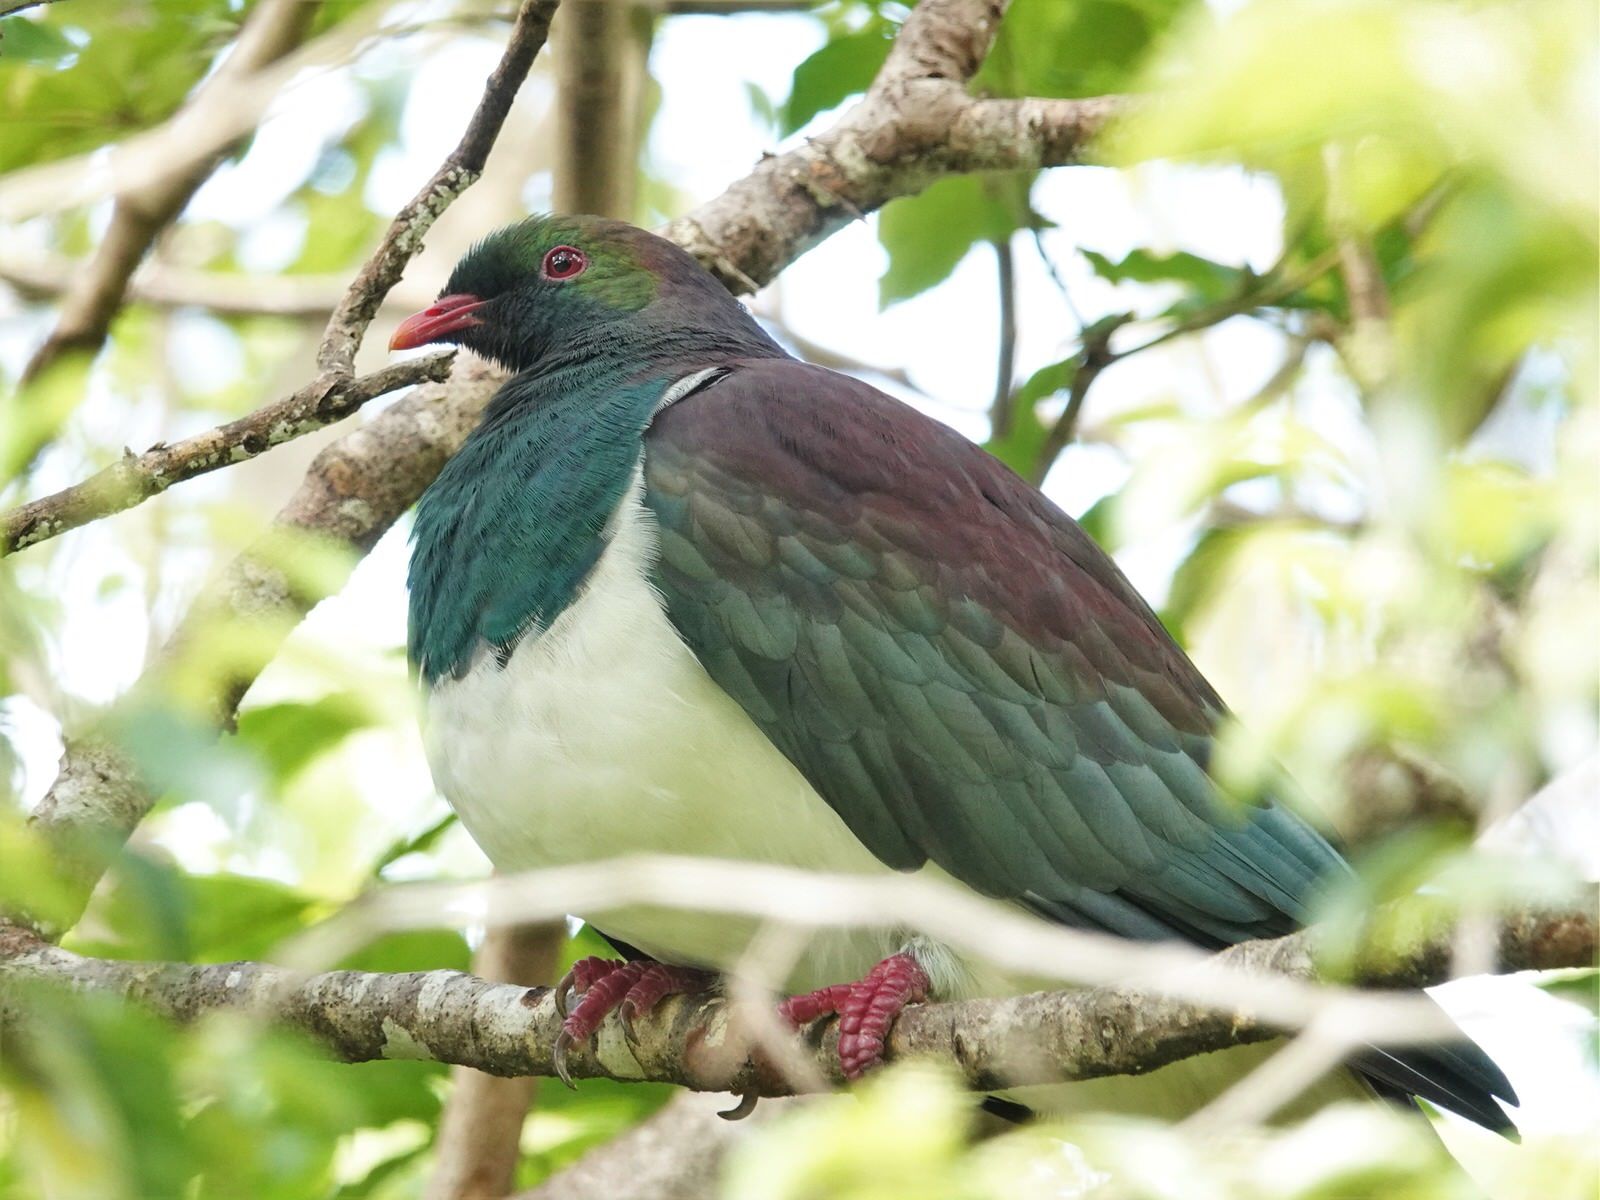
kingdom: Animalia
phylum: Chordata
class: Aves
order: Columbiformes
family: Columbidae
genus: Hemiphaga
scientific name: Hemiphaga novaeseelandiae
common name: New zealand pigeon
